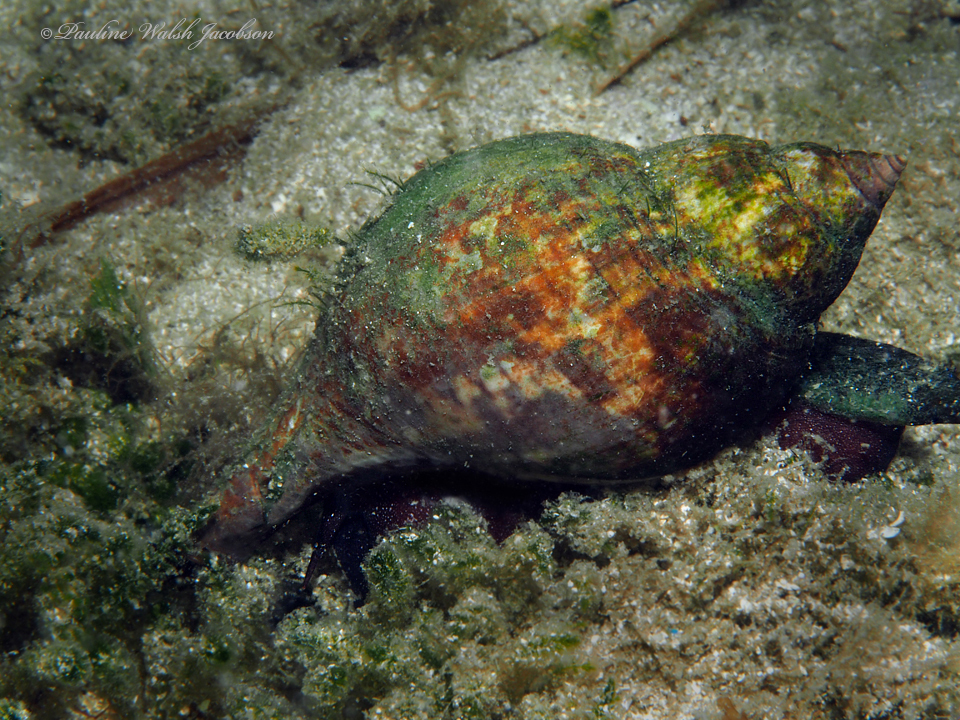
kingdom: Animalia
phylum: Mollusca
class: Gastropoda
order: Neogastropoda
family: Fasciolariidae
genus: Fasciolaria
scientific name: Fasciolaria tulipa
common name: True tulip
